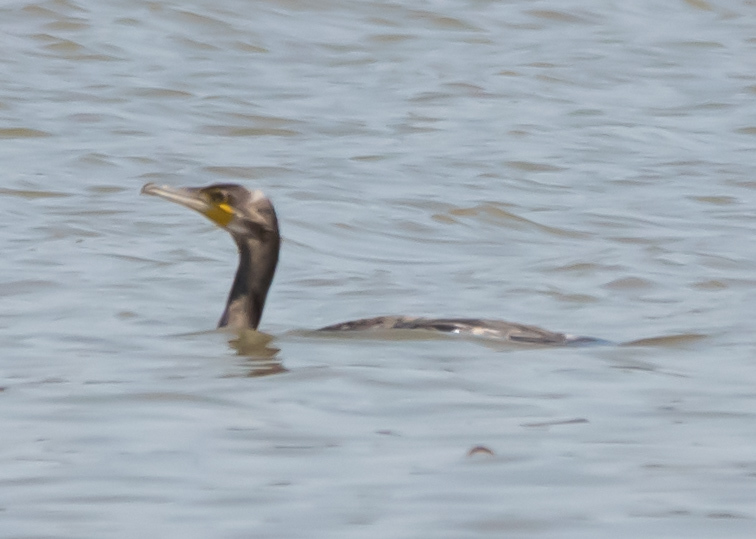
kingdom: Animalia
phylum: Chordata
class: Aves
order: Suliformes
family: Phalacrocoracidae
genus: Phalacrocorax
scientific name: Phalacrocorax carbo
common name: Great cormorant
